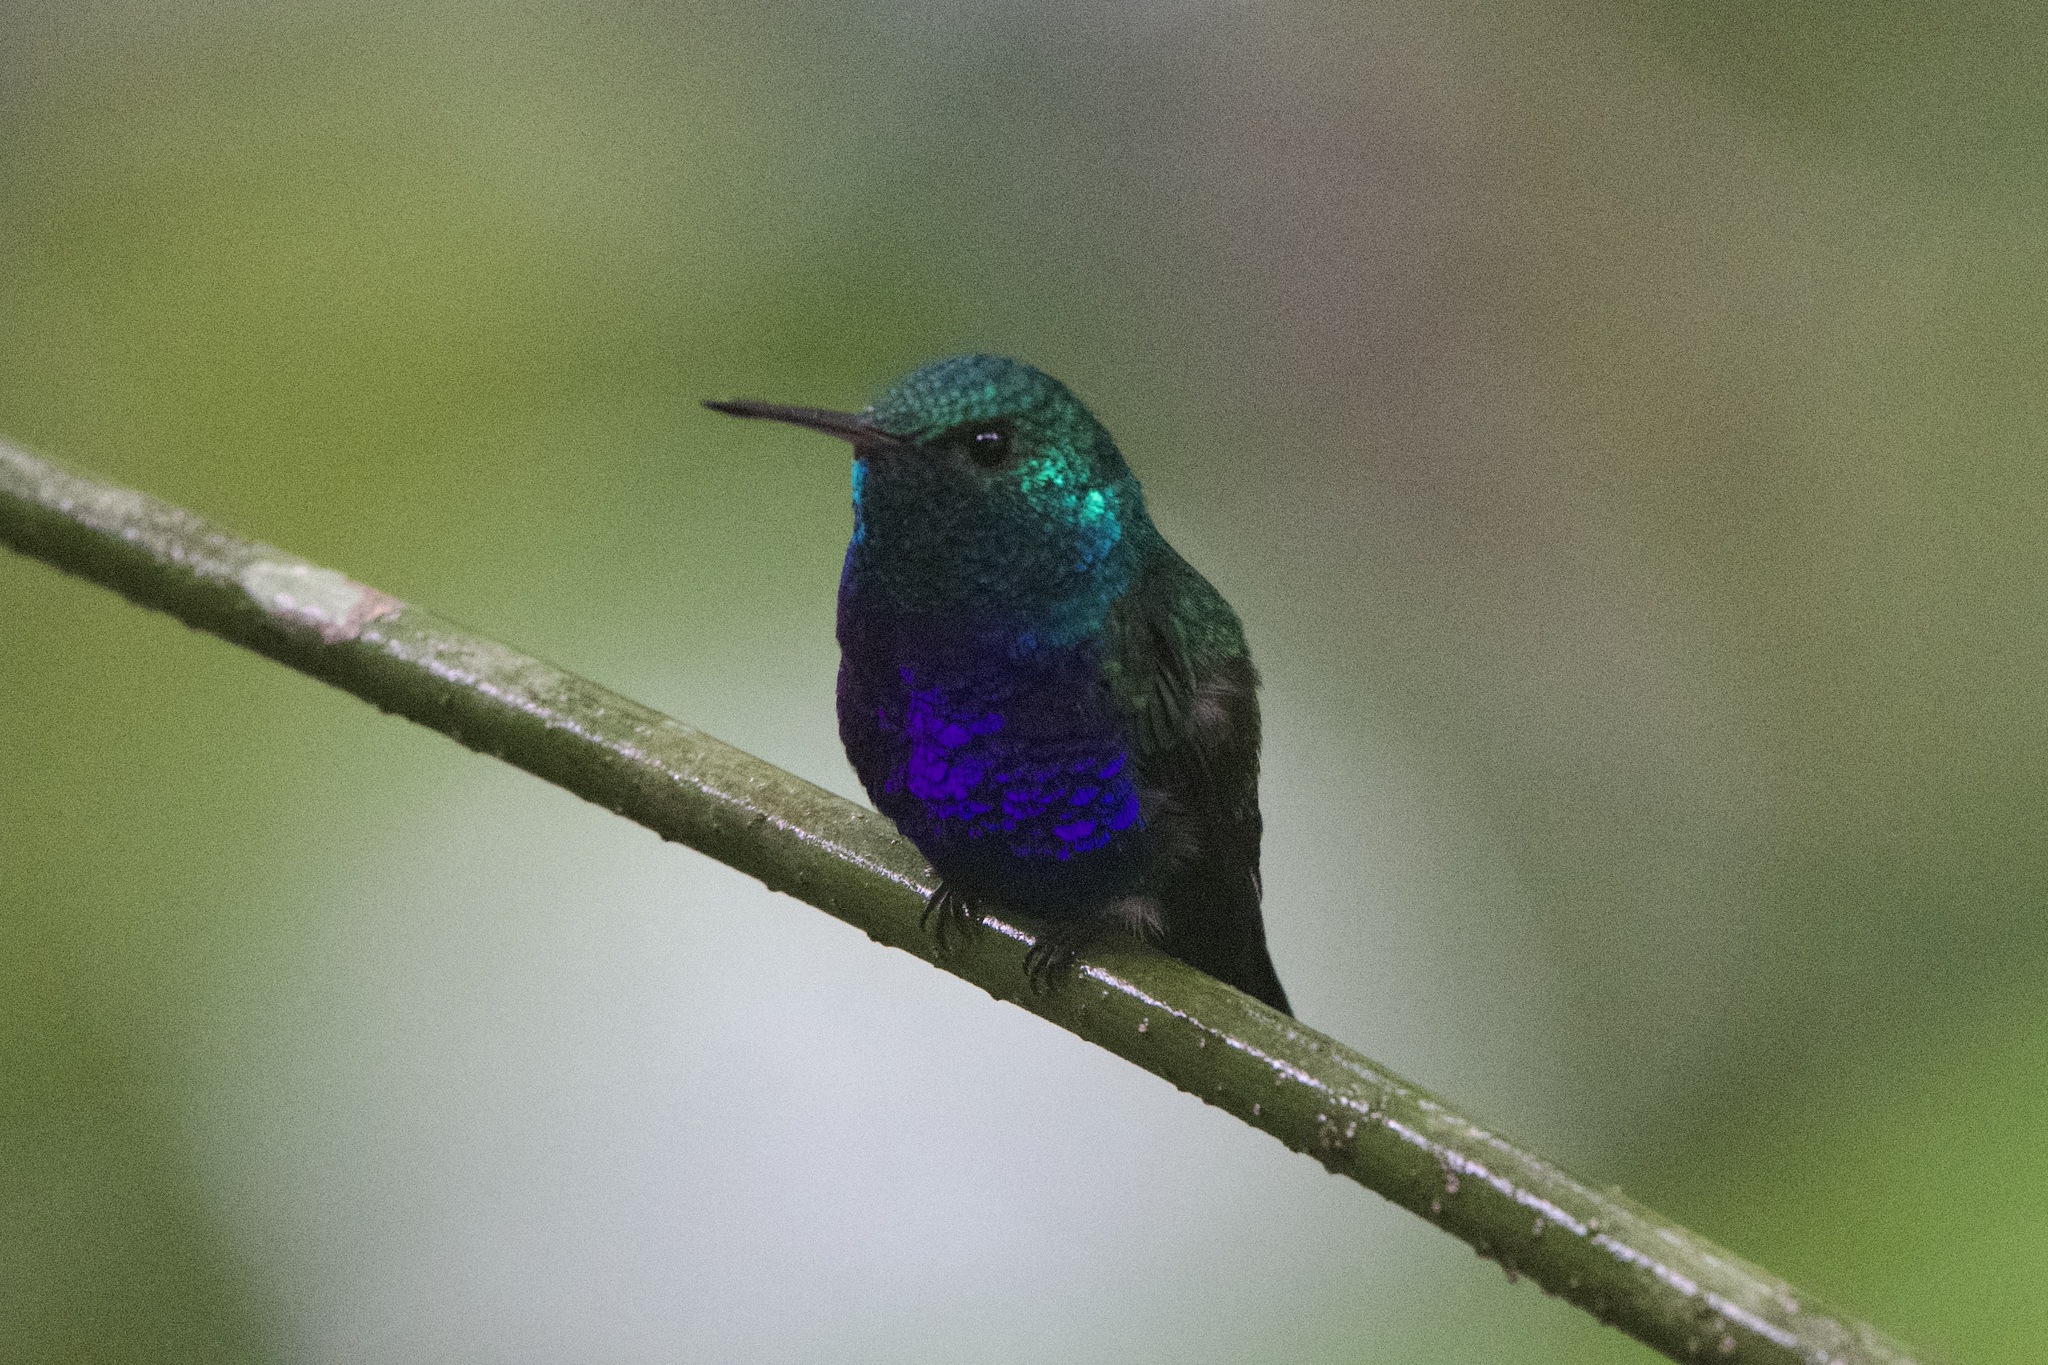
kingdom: Animalia
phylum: Chordata
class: Aves
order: Apodiformes
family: Trochilidae
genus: Chlorestes
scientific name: Chlorestes julie
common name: Violet-bellied hummingbird
